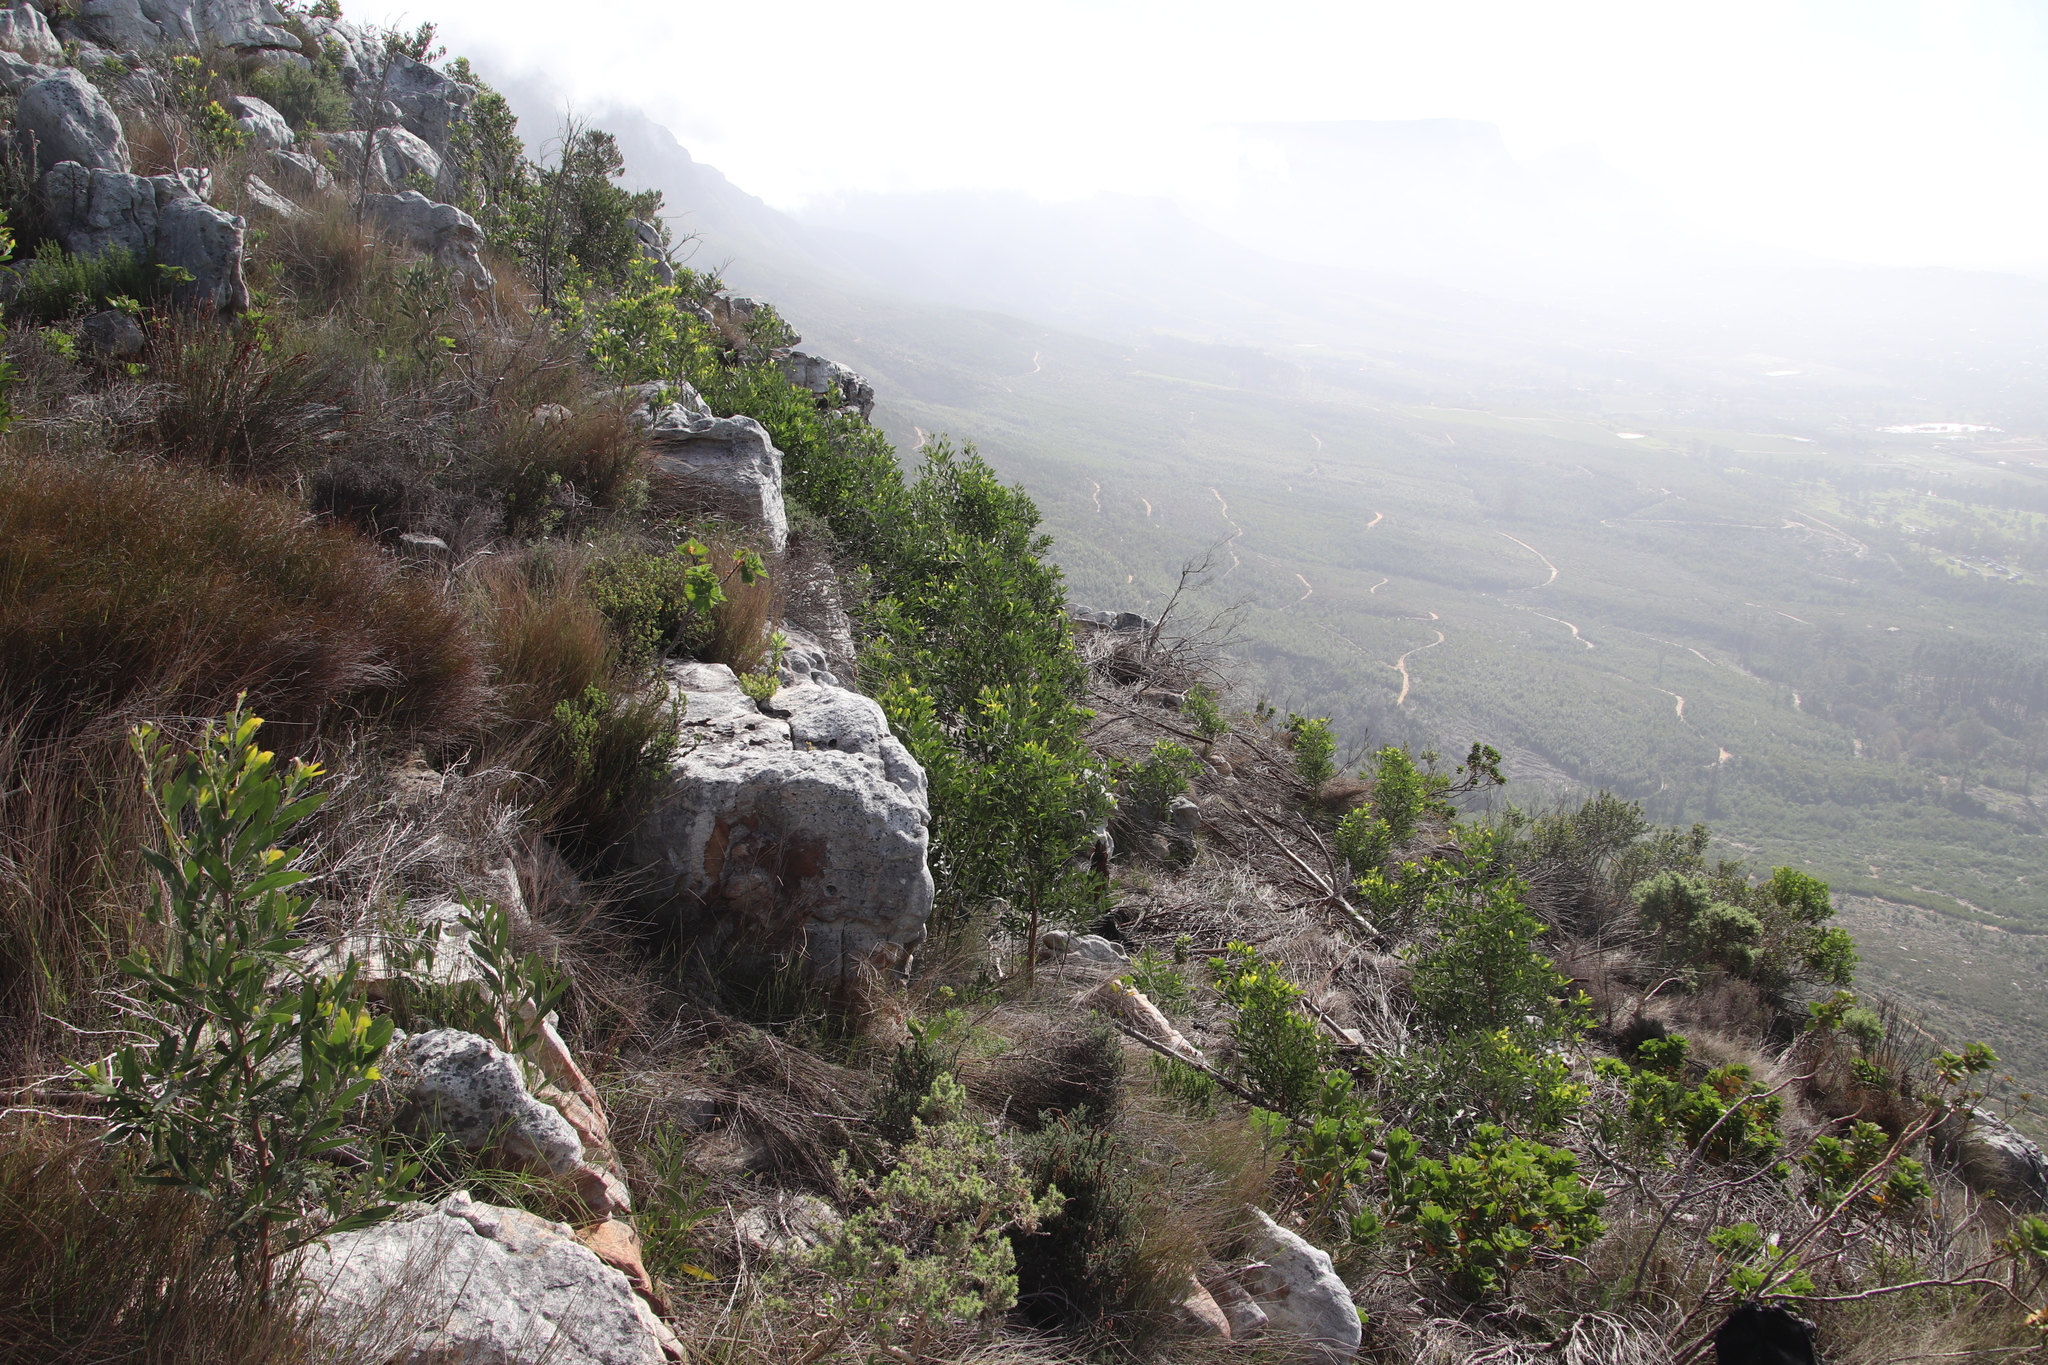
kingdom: Plantae
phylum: Tracheophyta
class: Magnoliopsida
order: Fabales
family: Fabaceae
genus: Acacia
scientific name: Acacia melanoxylon
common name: Blackwood
